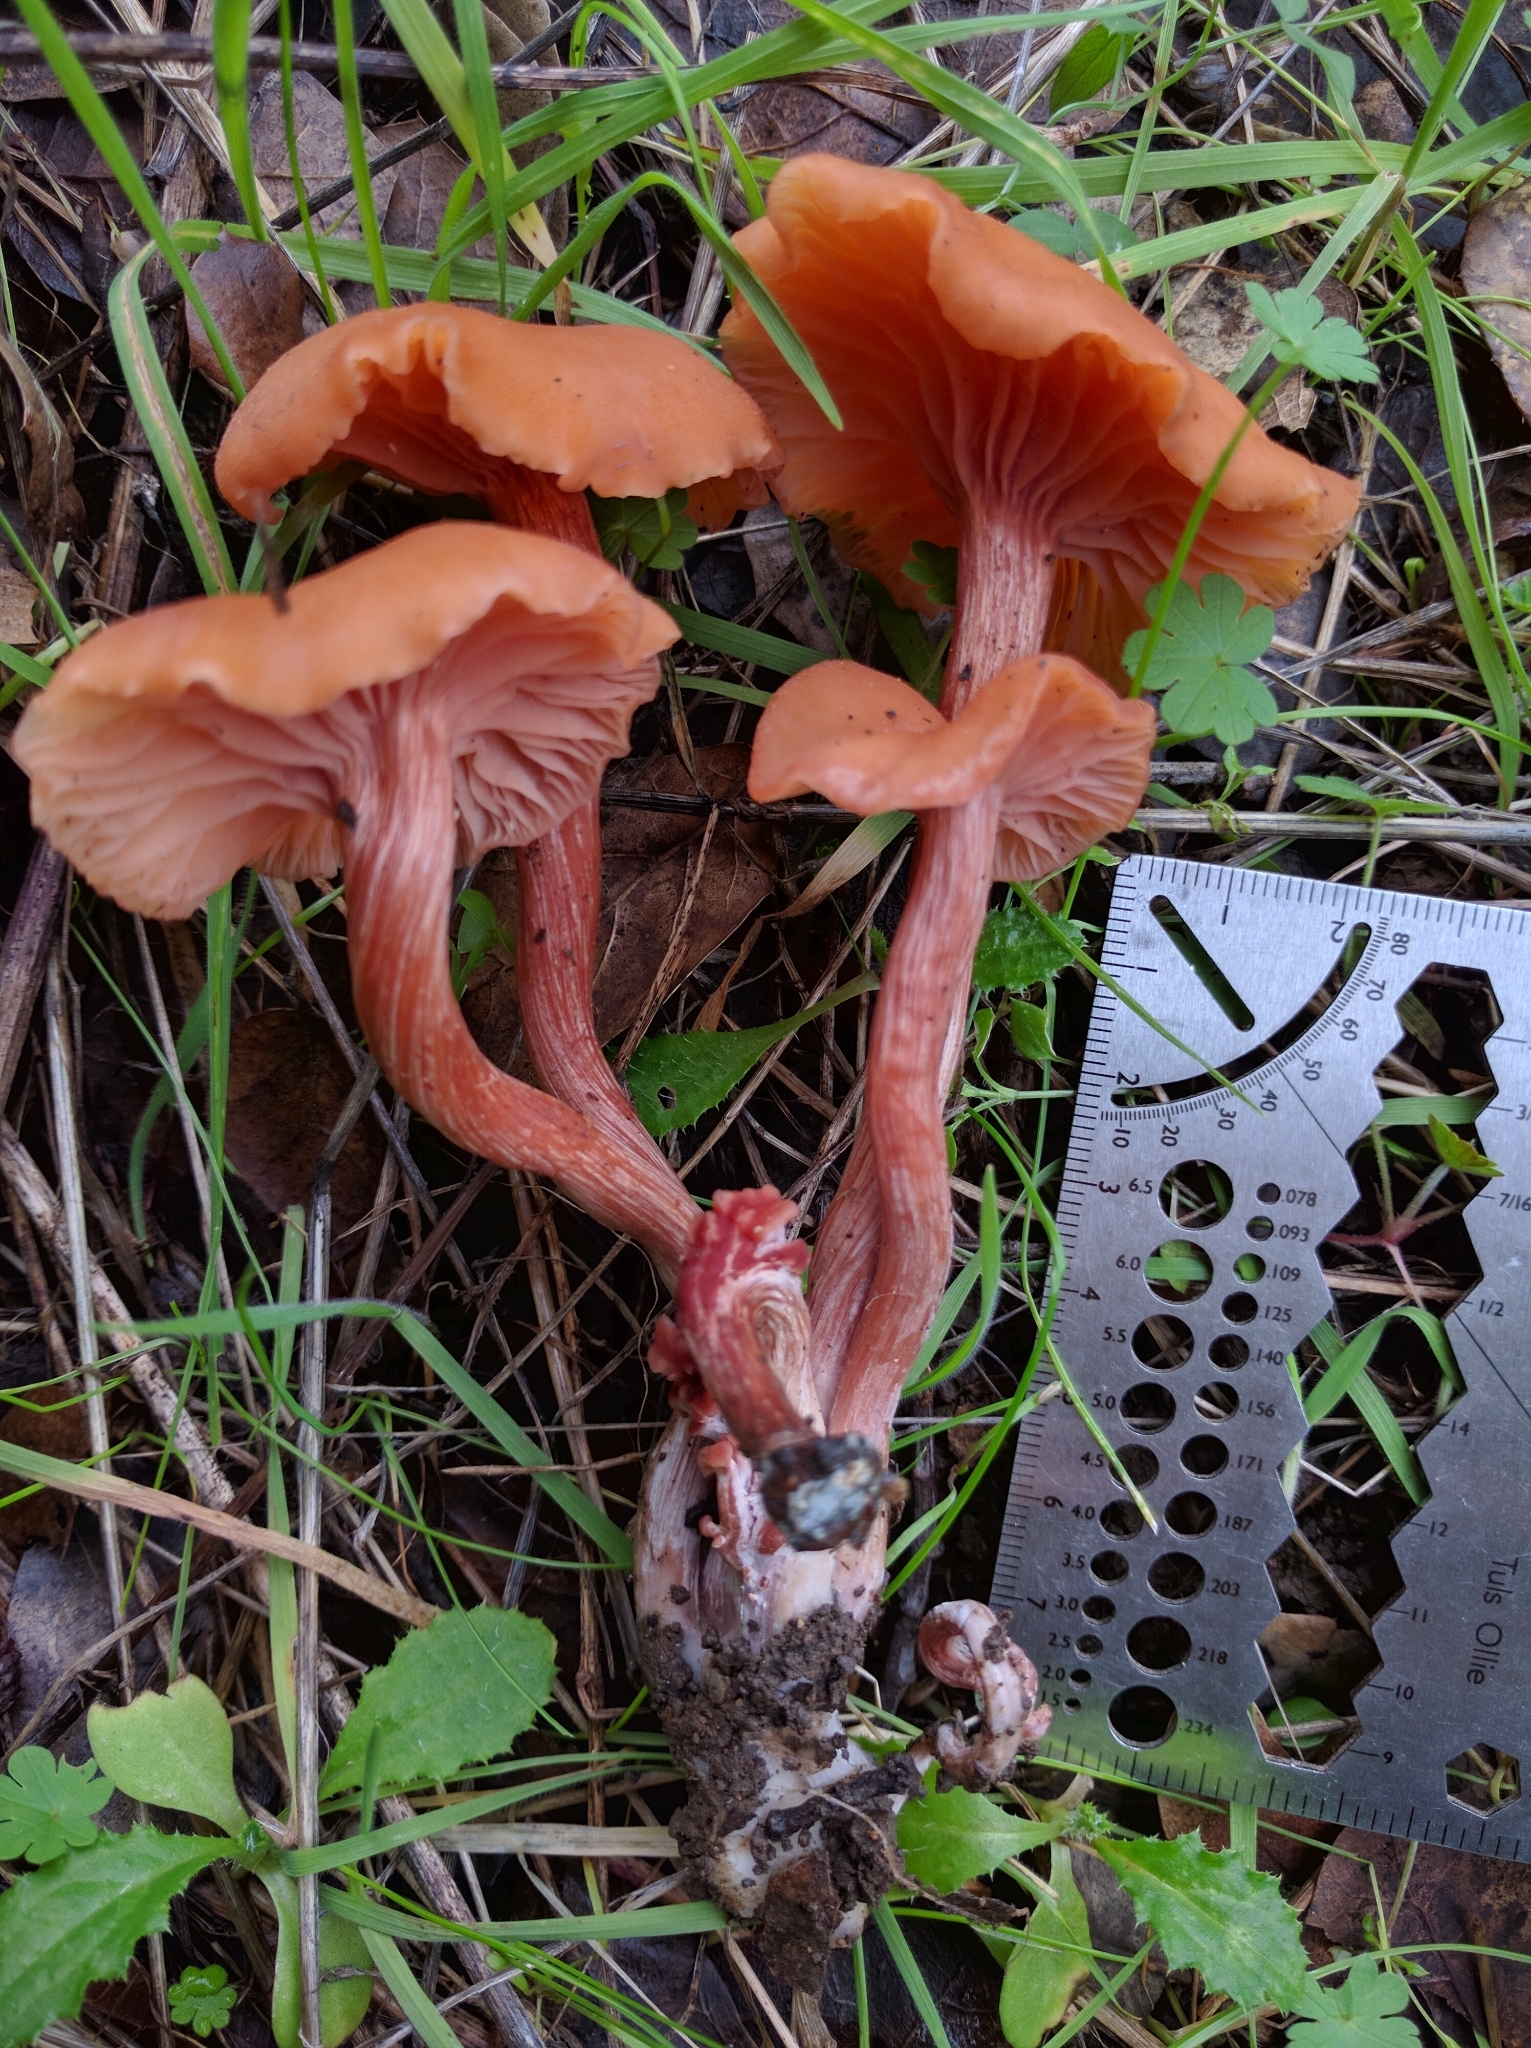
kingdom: Fungi
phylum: Basidiomycota
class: Agaricomycetes
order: Agaricales
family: Hydnangiaceae
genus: Laccaria
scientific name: Laccaria laccata
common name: Deceiver
